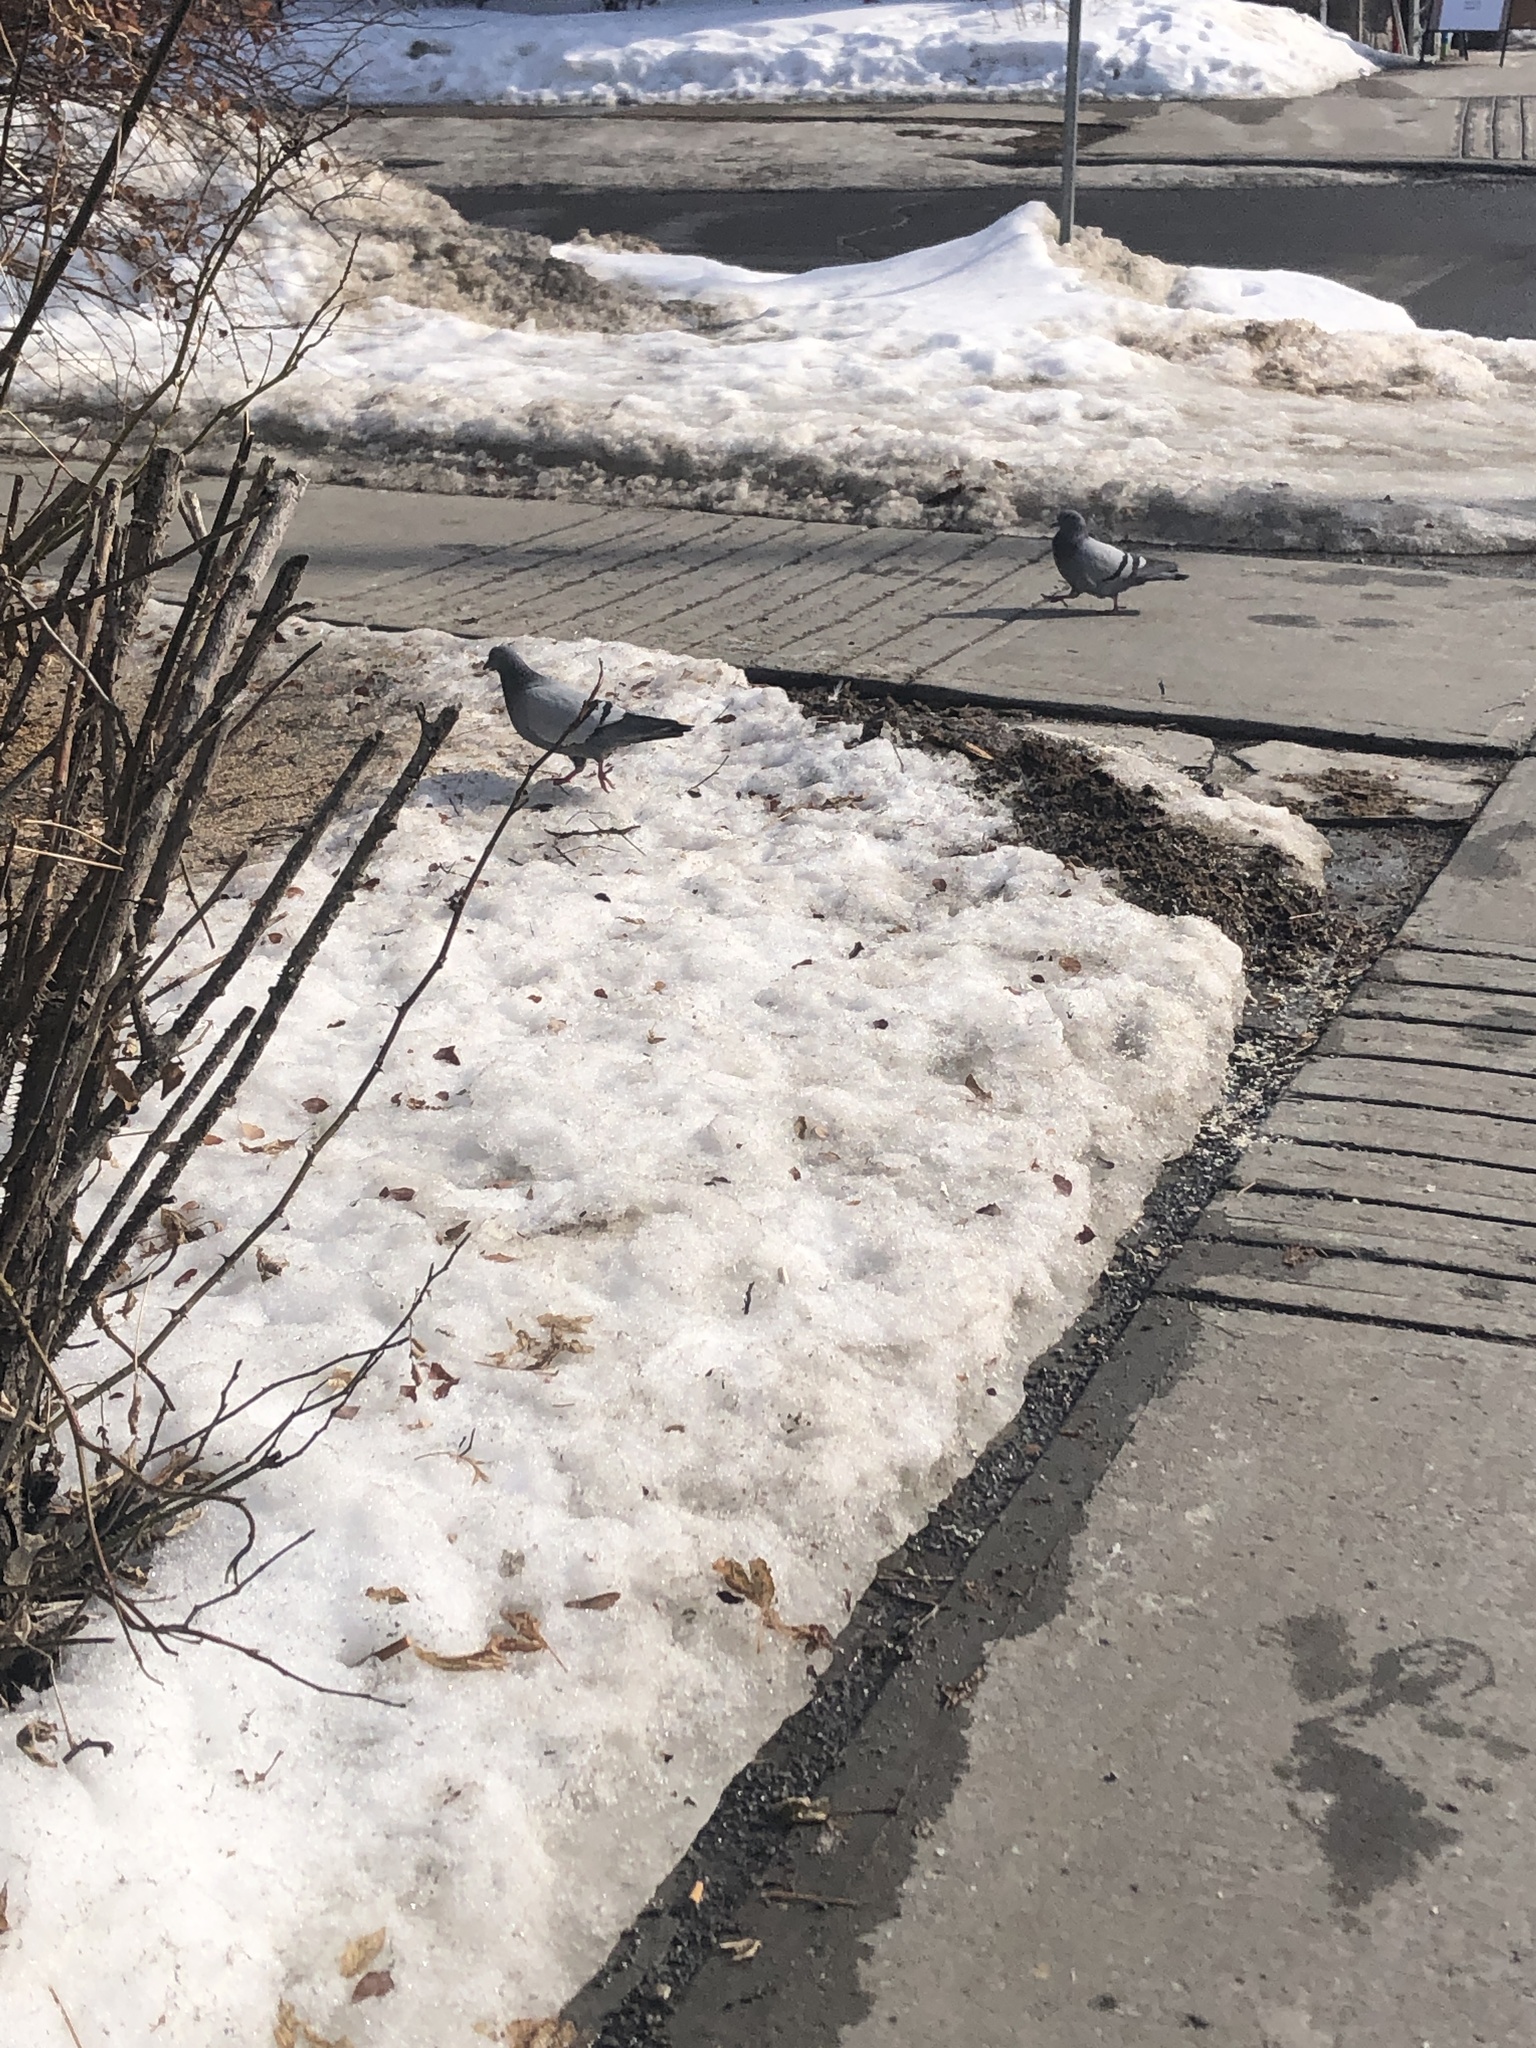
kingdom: Animalia
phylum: Chordata
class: Aves
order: Columbiformes
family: Columbidae
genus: Columba
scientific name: Columba livia
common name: Rock pigeon
